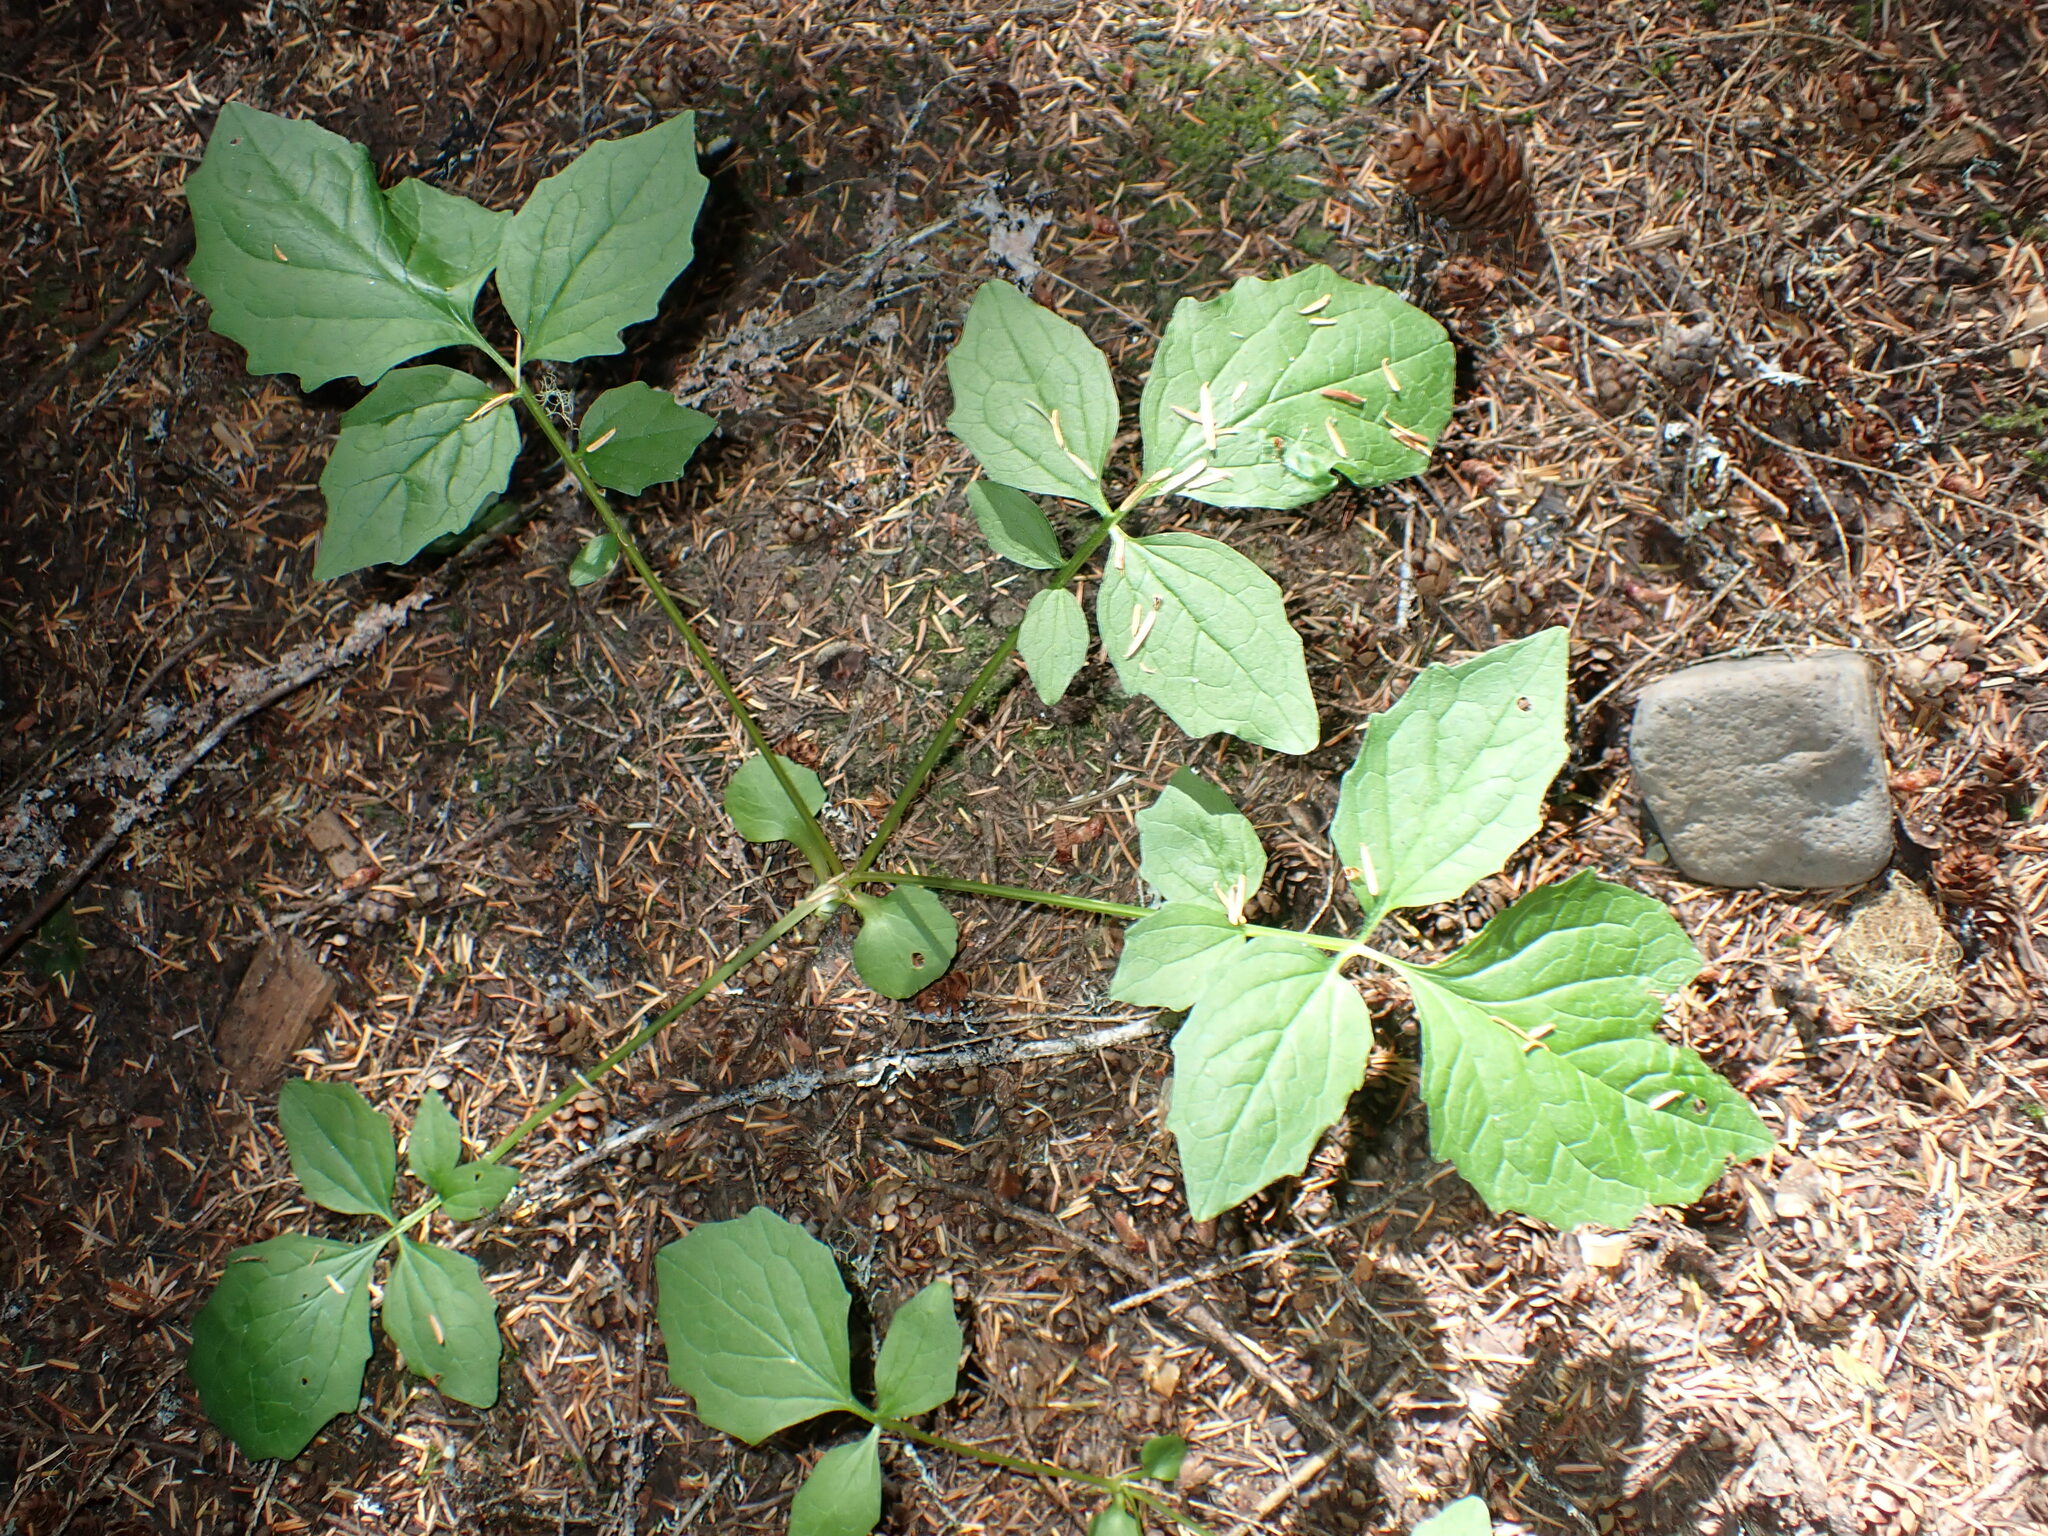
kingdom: Plantae
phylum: Tracheophyta
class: Magnoliopsida
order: Dipsacales
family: Caprifoliaceae
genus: Valeriana
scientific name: Valeriana sitchensis
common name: Pacific valerian
